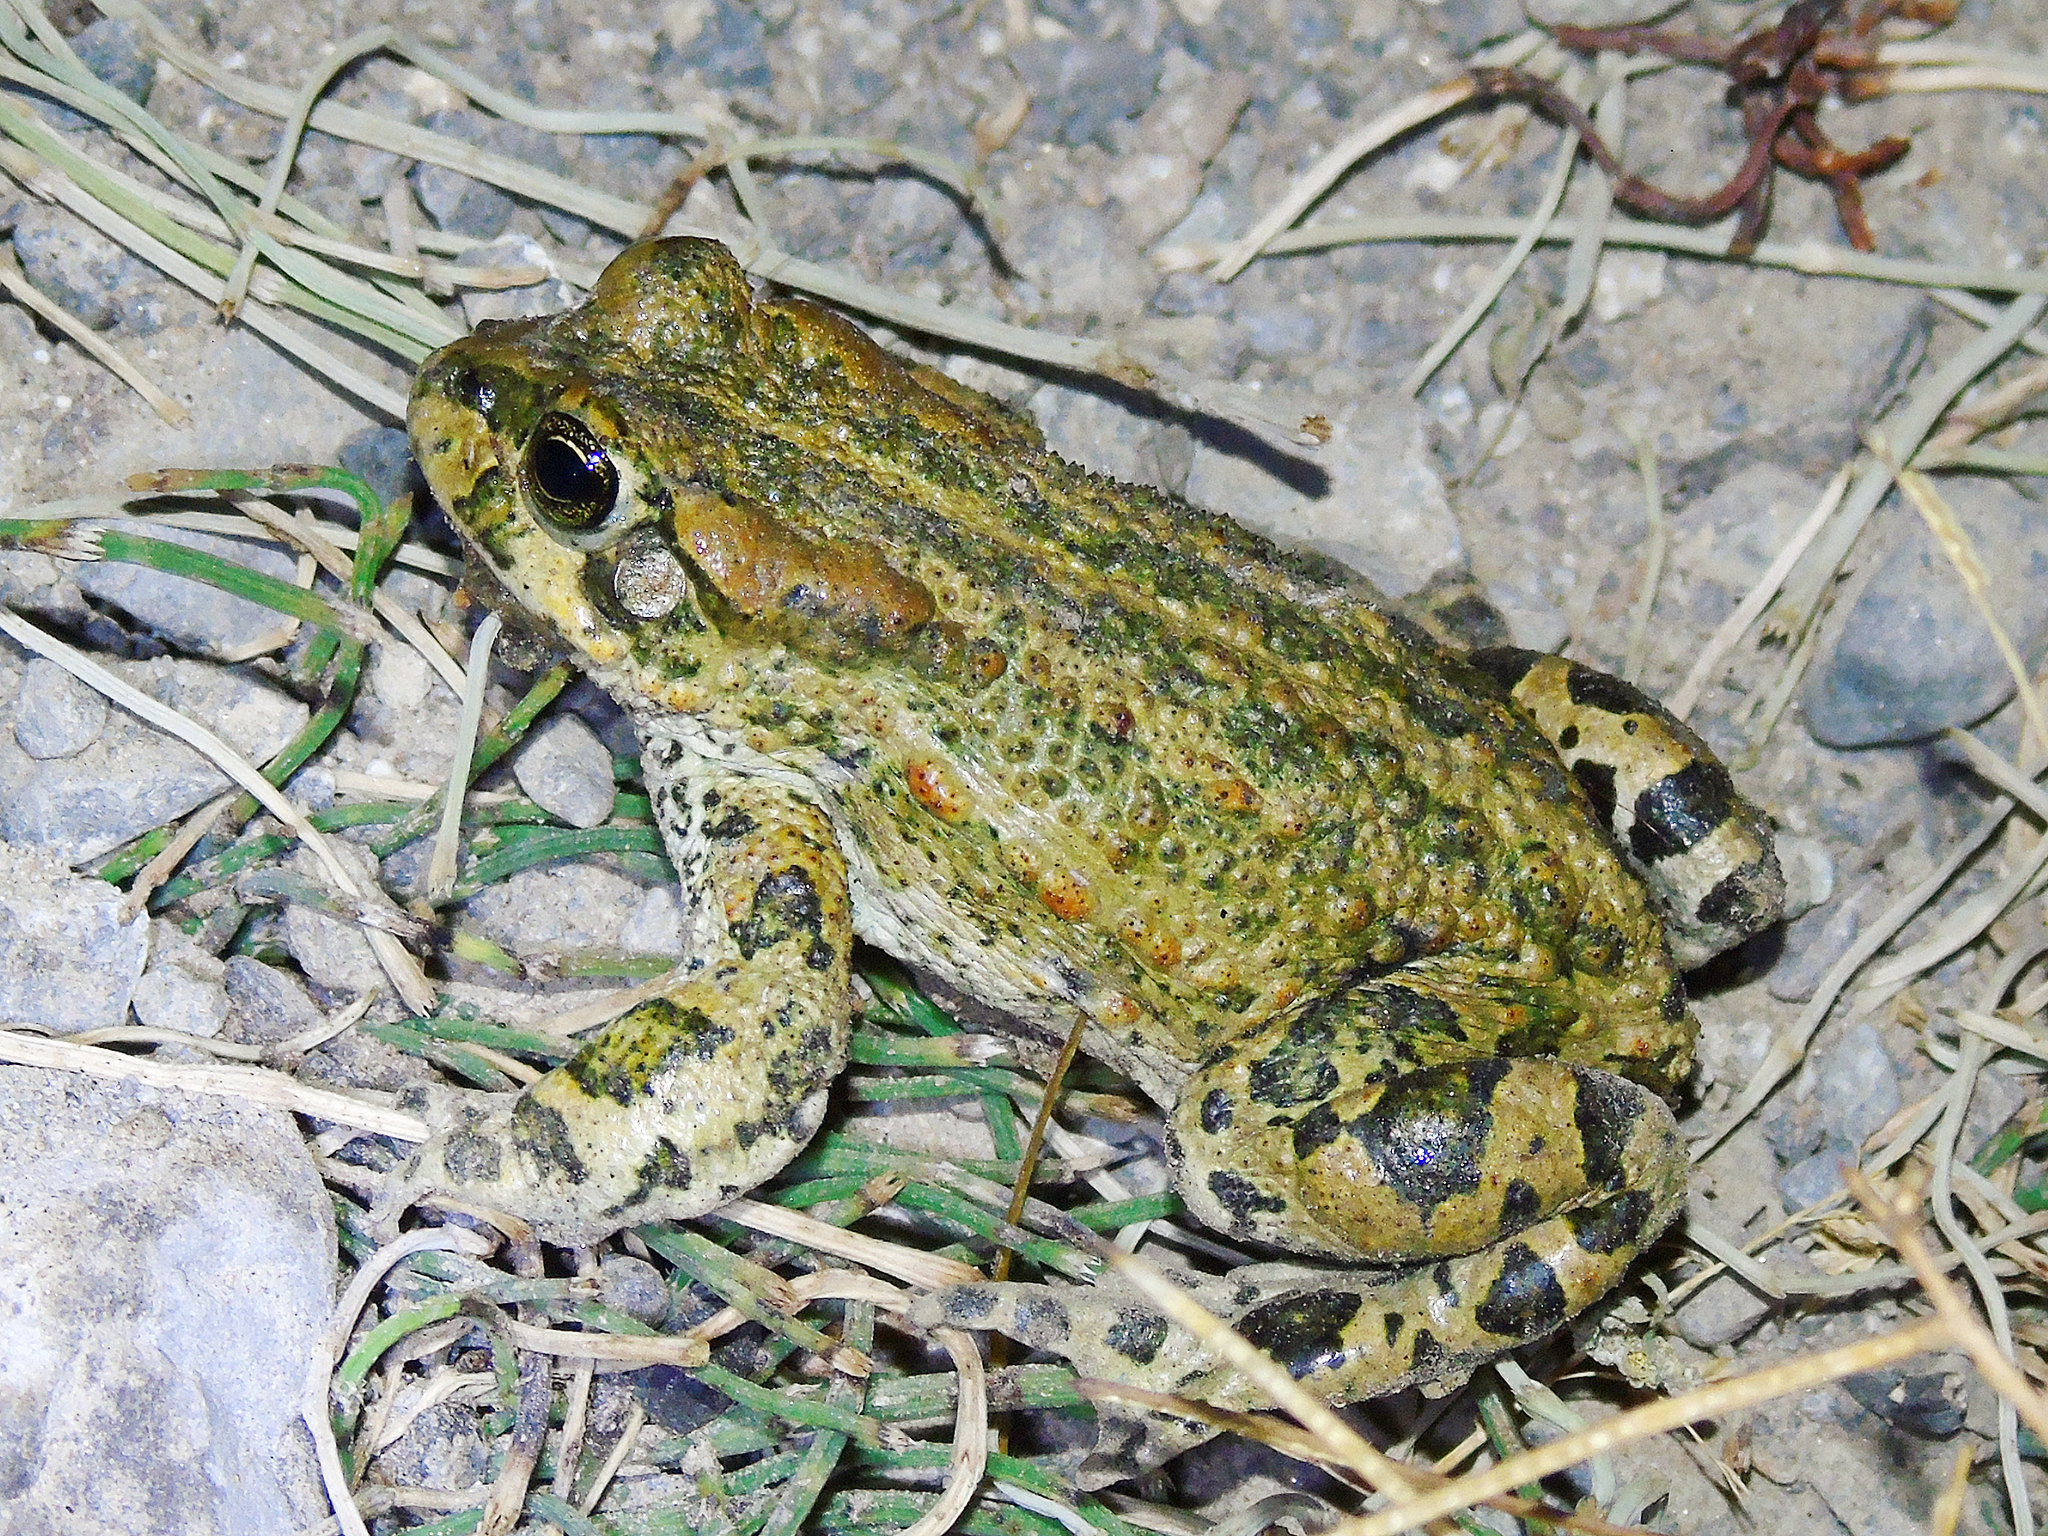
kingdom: Animalia
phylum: Chordata
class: Amphibia
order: Anura
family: Bufonidae
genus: Bufotes
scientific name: Bufotes latastii
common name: Ladakh toad
